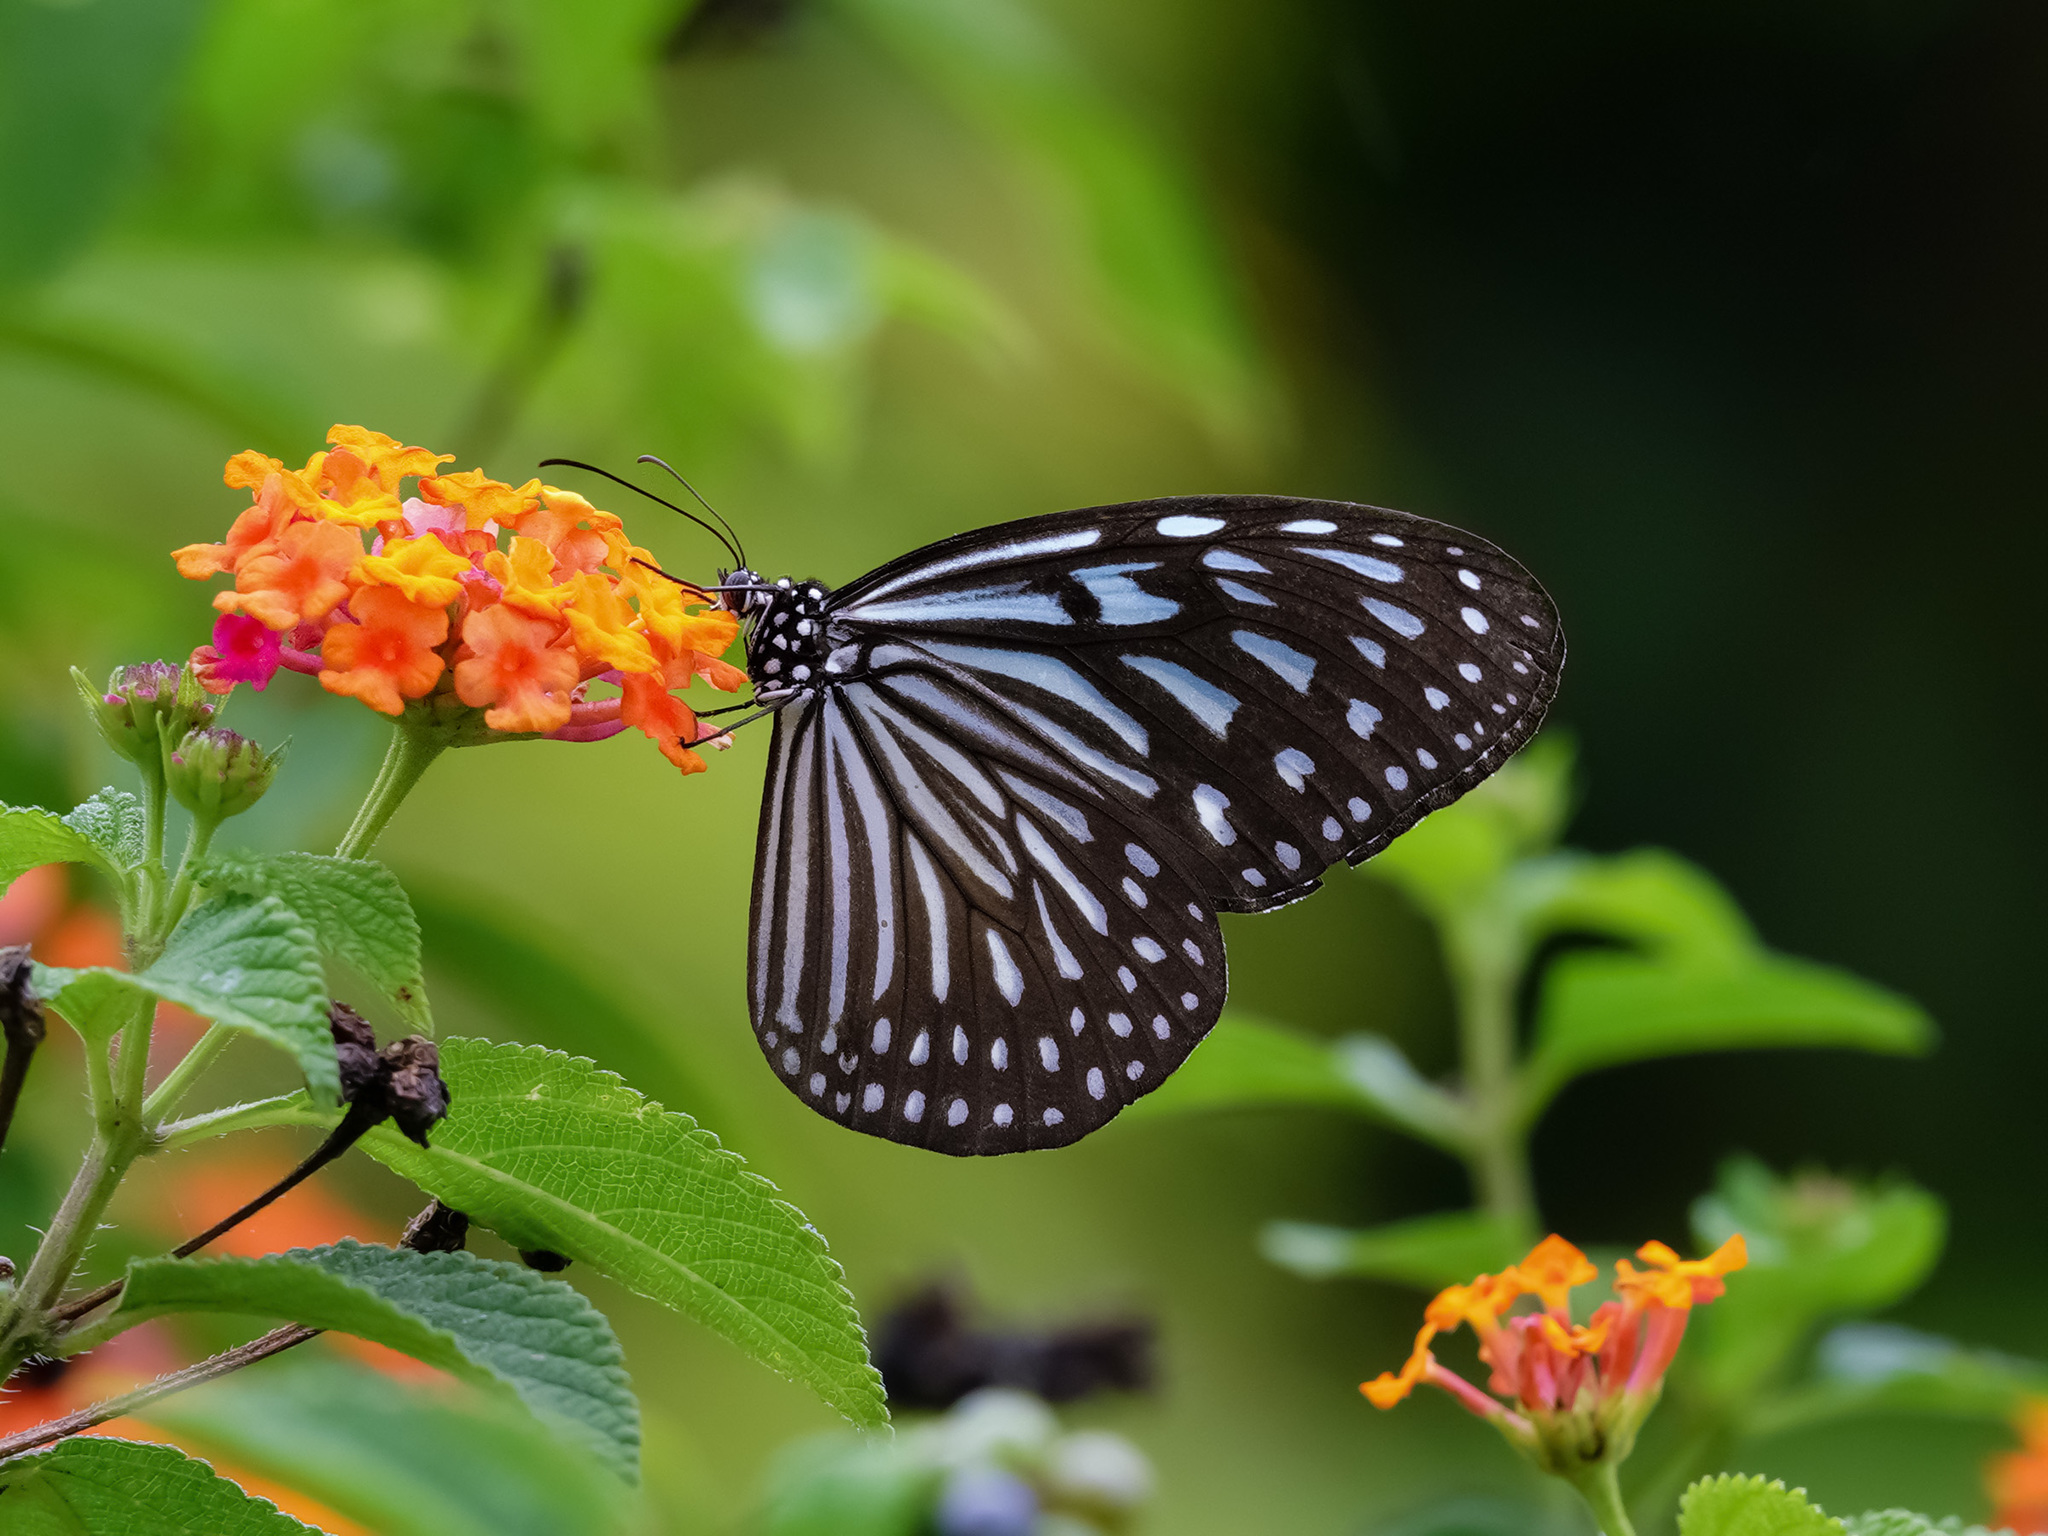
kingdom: Animalia
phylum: Arthropoda
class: Insecta
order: Lepidoptera
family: Nymphalidae
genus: Ideopsis
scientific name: Ideopsis vulgaris
